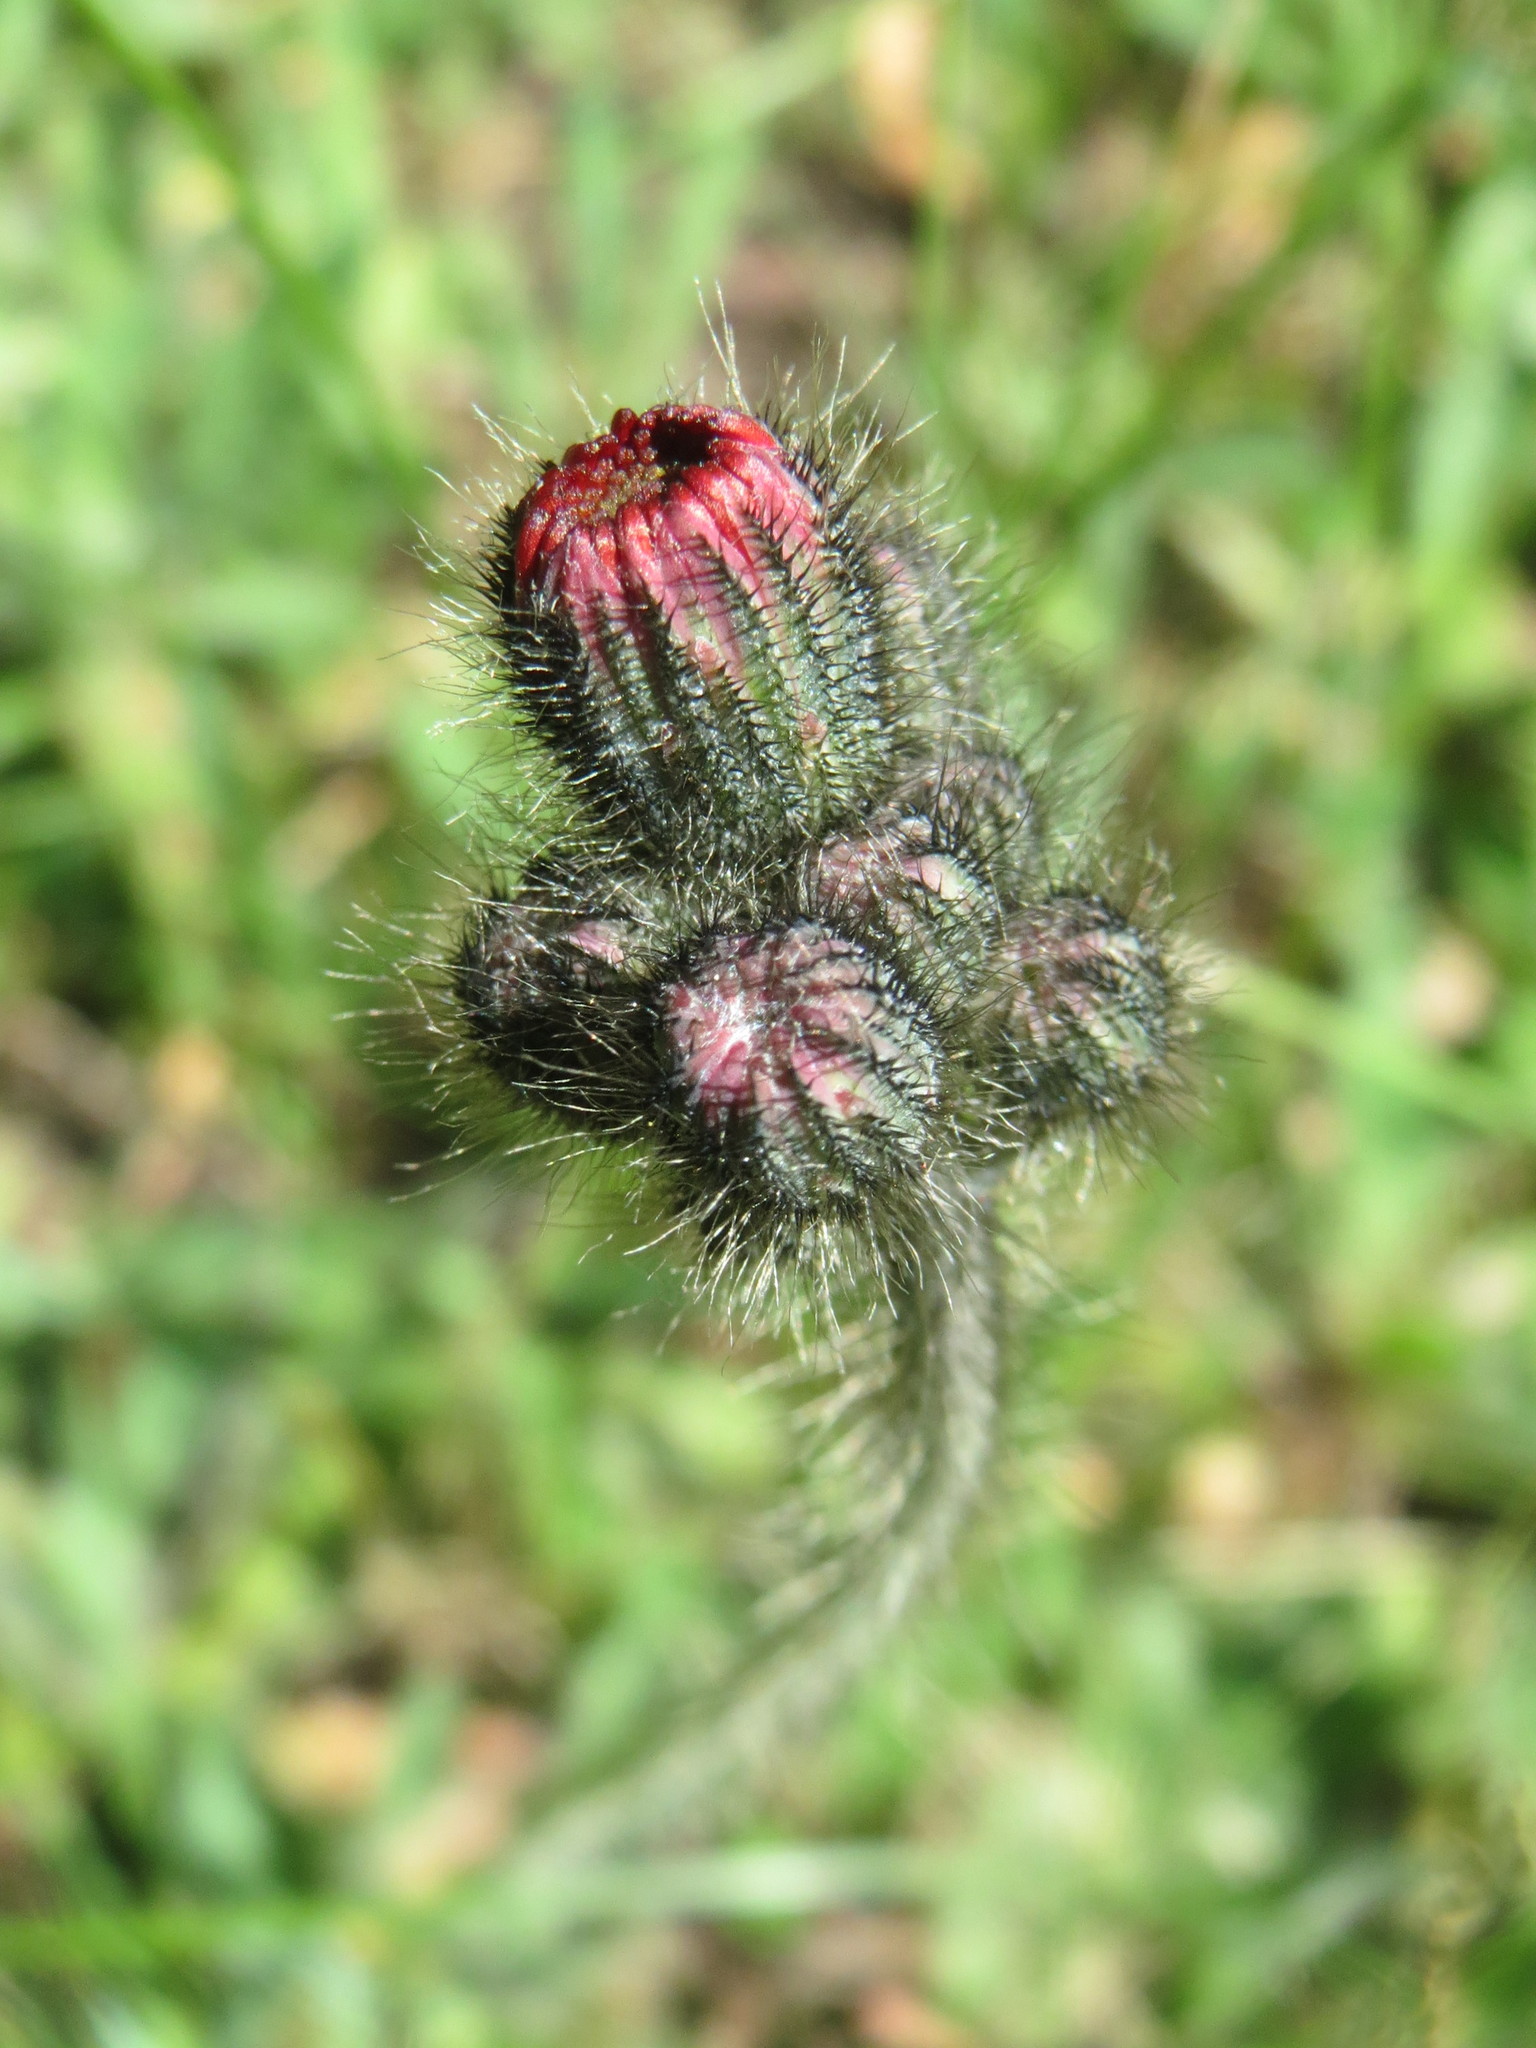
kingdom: Plantae
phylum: Tracheophyta
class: Magnoliopsida
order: Asterales
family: Asteraceae
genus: Pilosella
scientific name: Pilosella aurantiaca
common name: Fox-and-cubs
